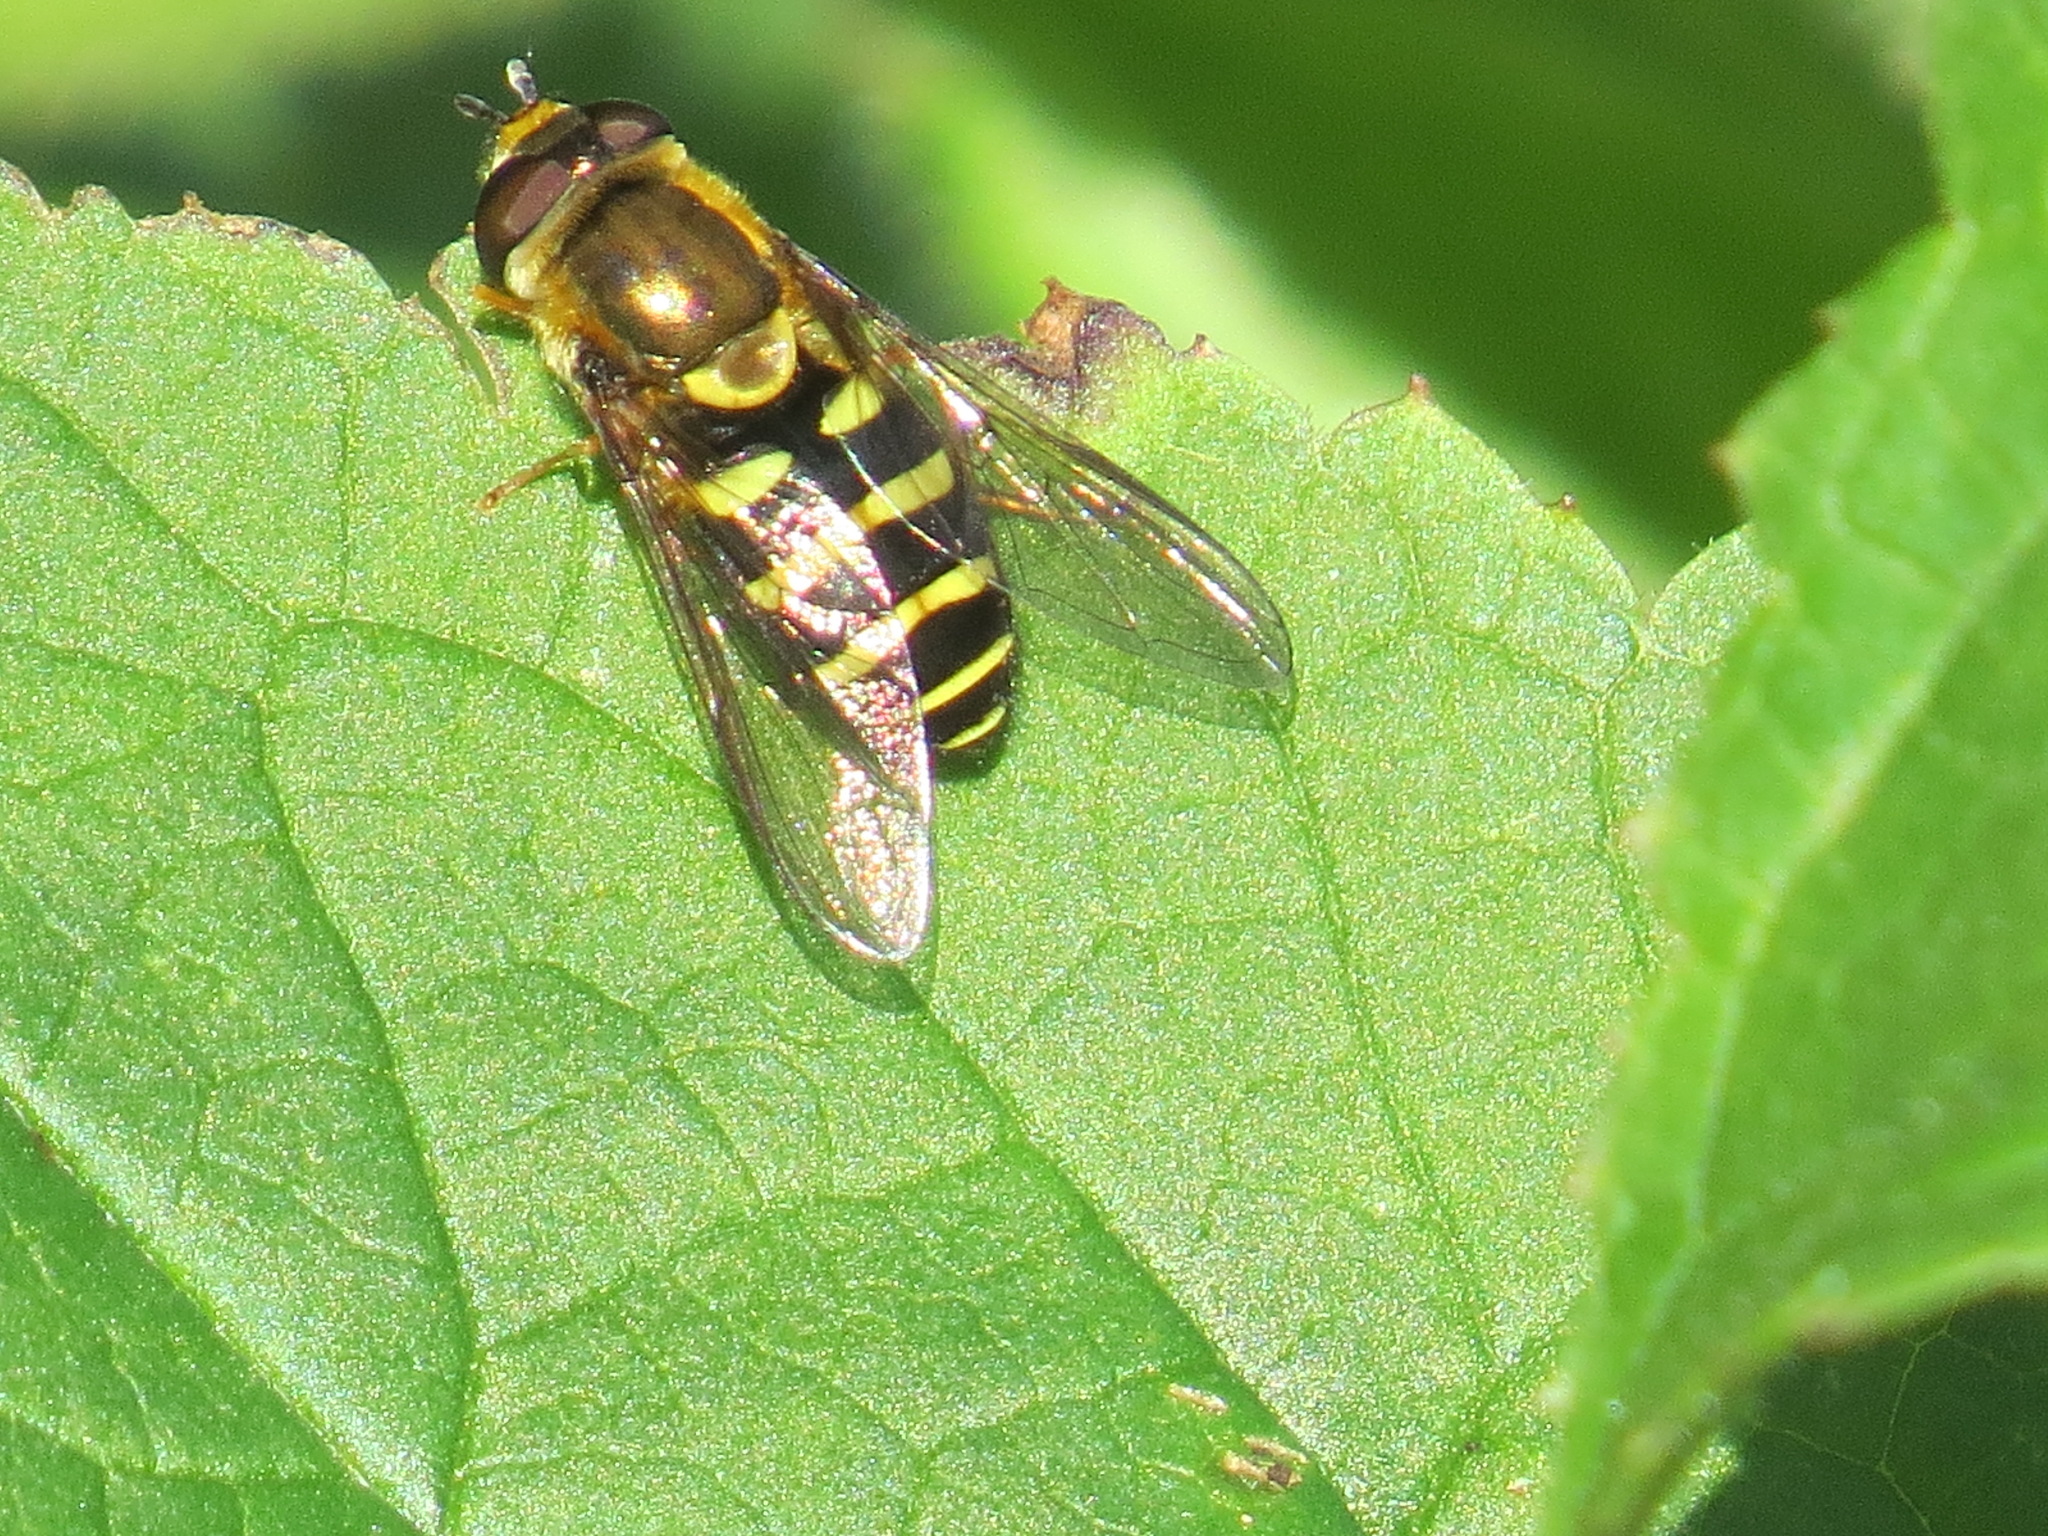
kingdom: Animalia
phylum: Arthropoda
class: Insecta
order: Diptera
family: Syrphidae
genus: Syrphus
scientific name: Syrphus opinator
